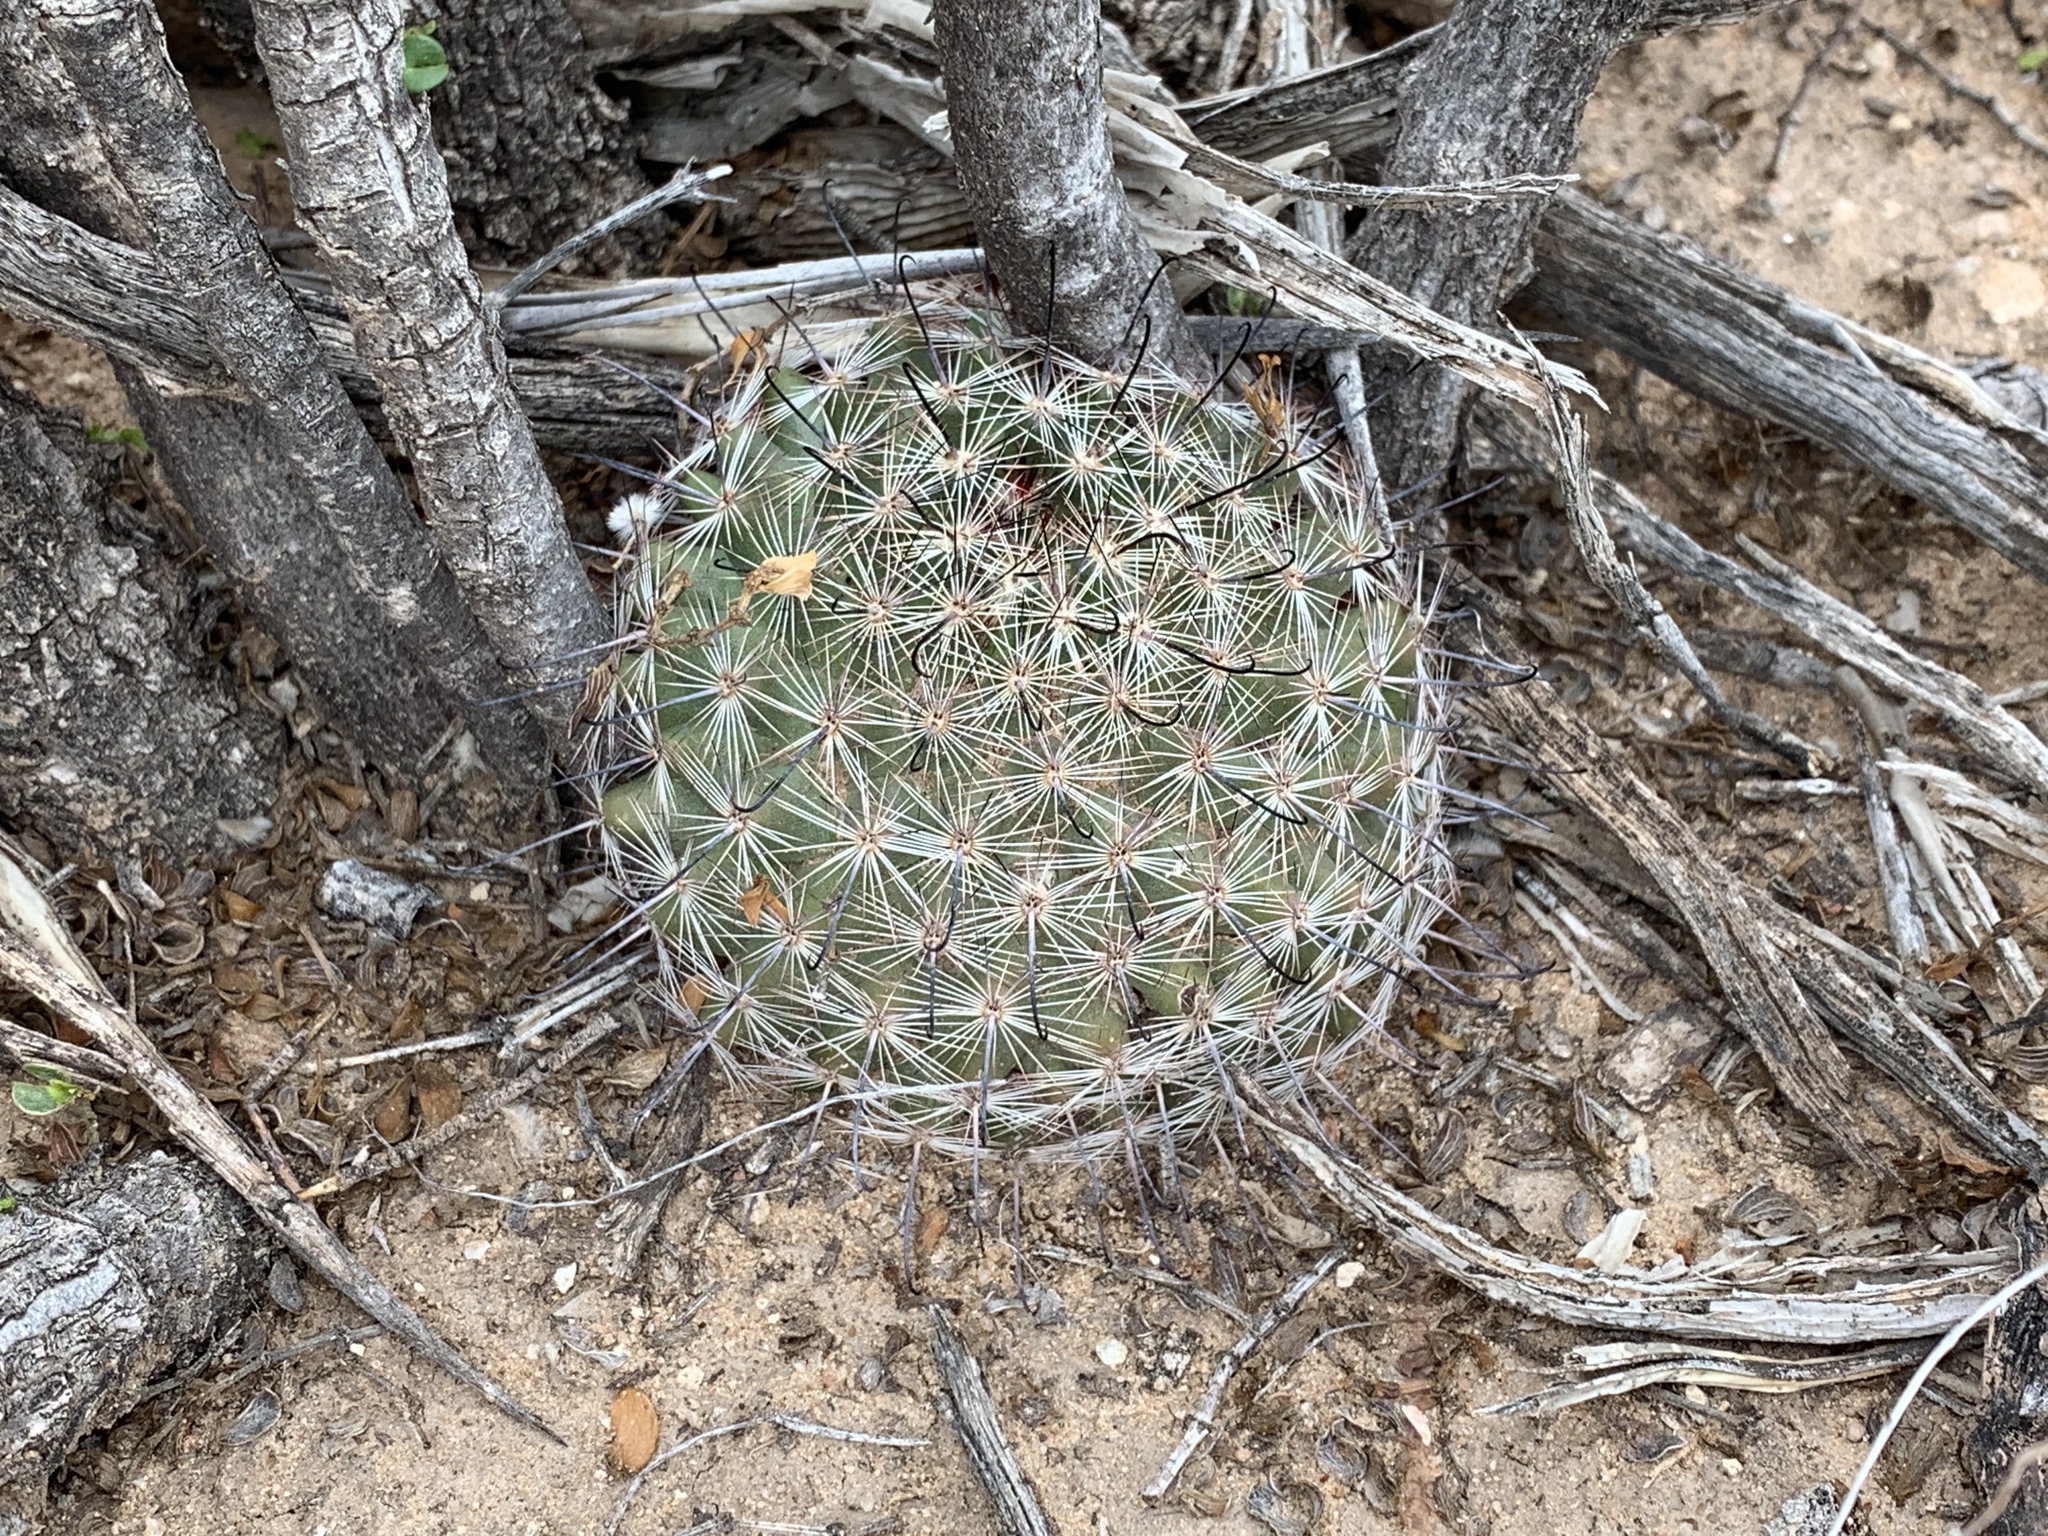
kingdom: Plantae
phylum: Tracheophyta
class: Magnoliopsida
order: Caryophyllales
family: Cactaceae
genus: Cochemiea
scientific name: Cochemiea grahamii
